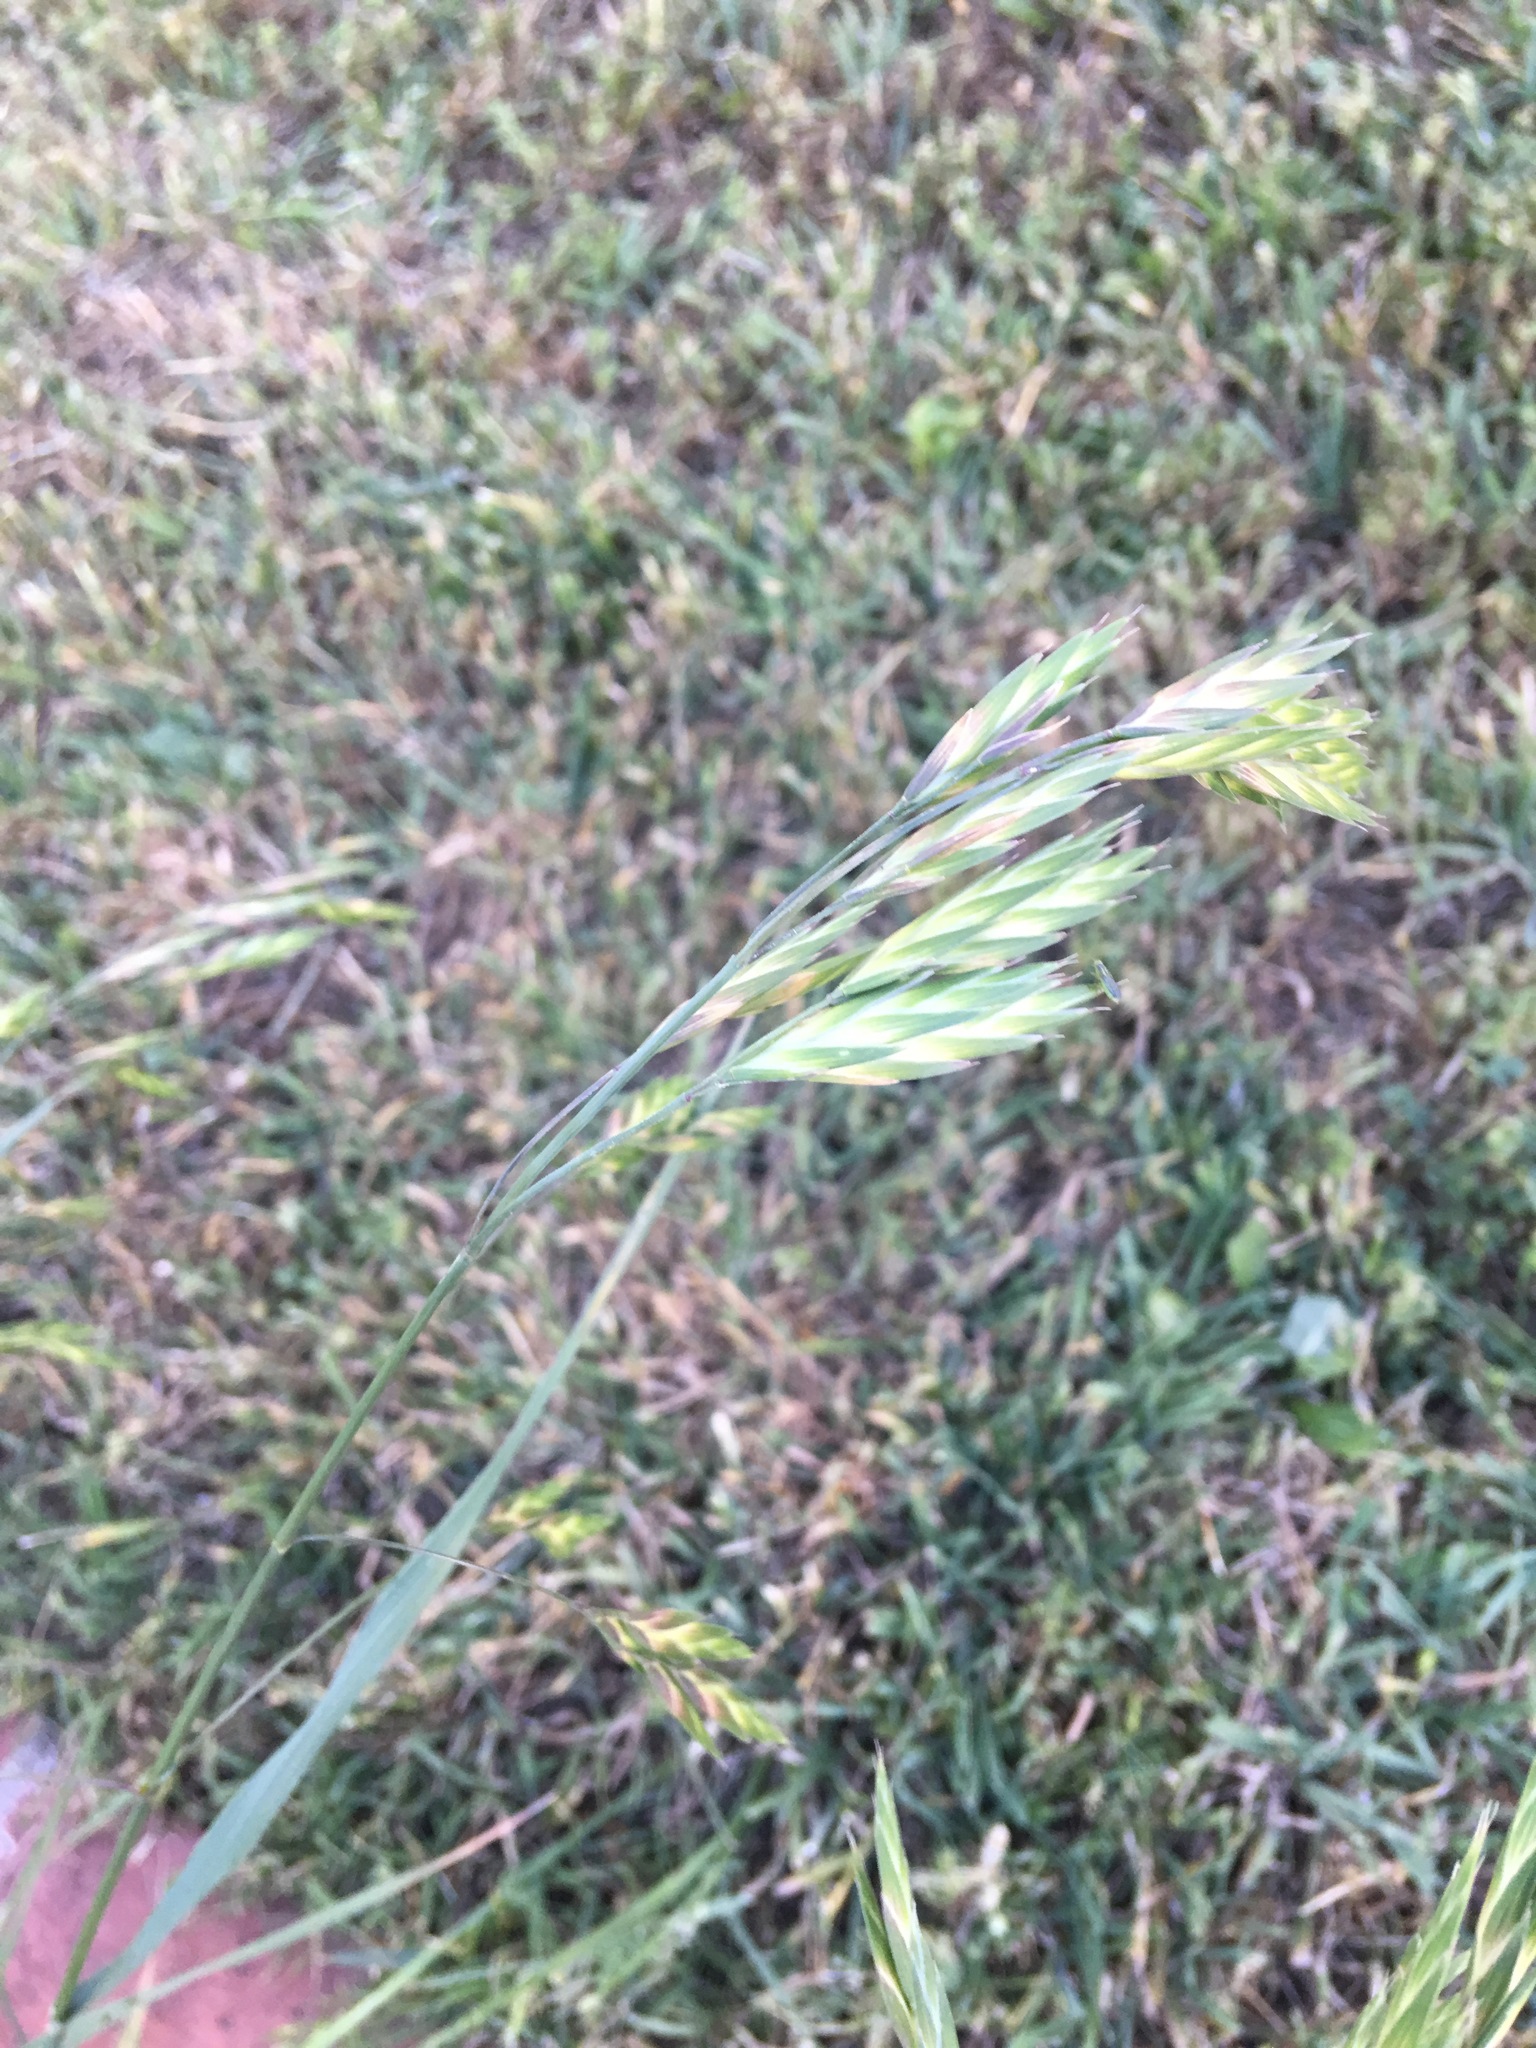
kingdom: Plantae
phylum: Tracheophyta
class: Liliopsida
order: Poales
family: Poaceae
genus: Bromus
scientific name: Bromus catharticus
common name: Rescuegrass
